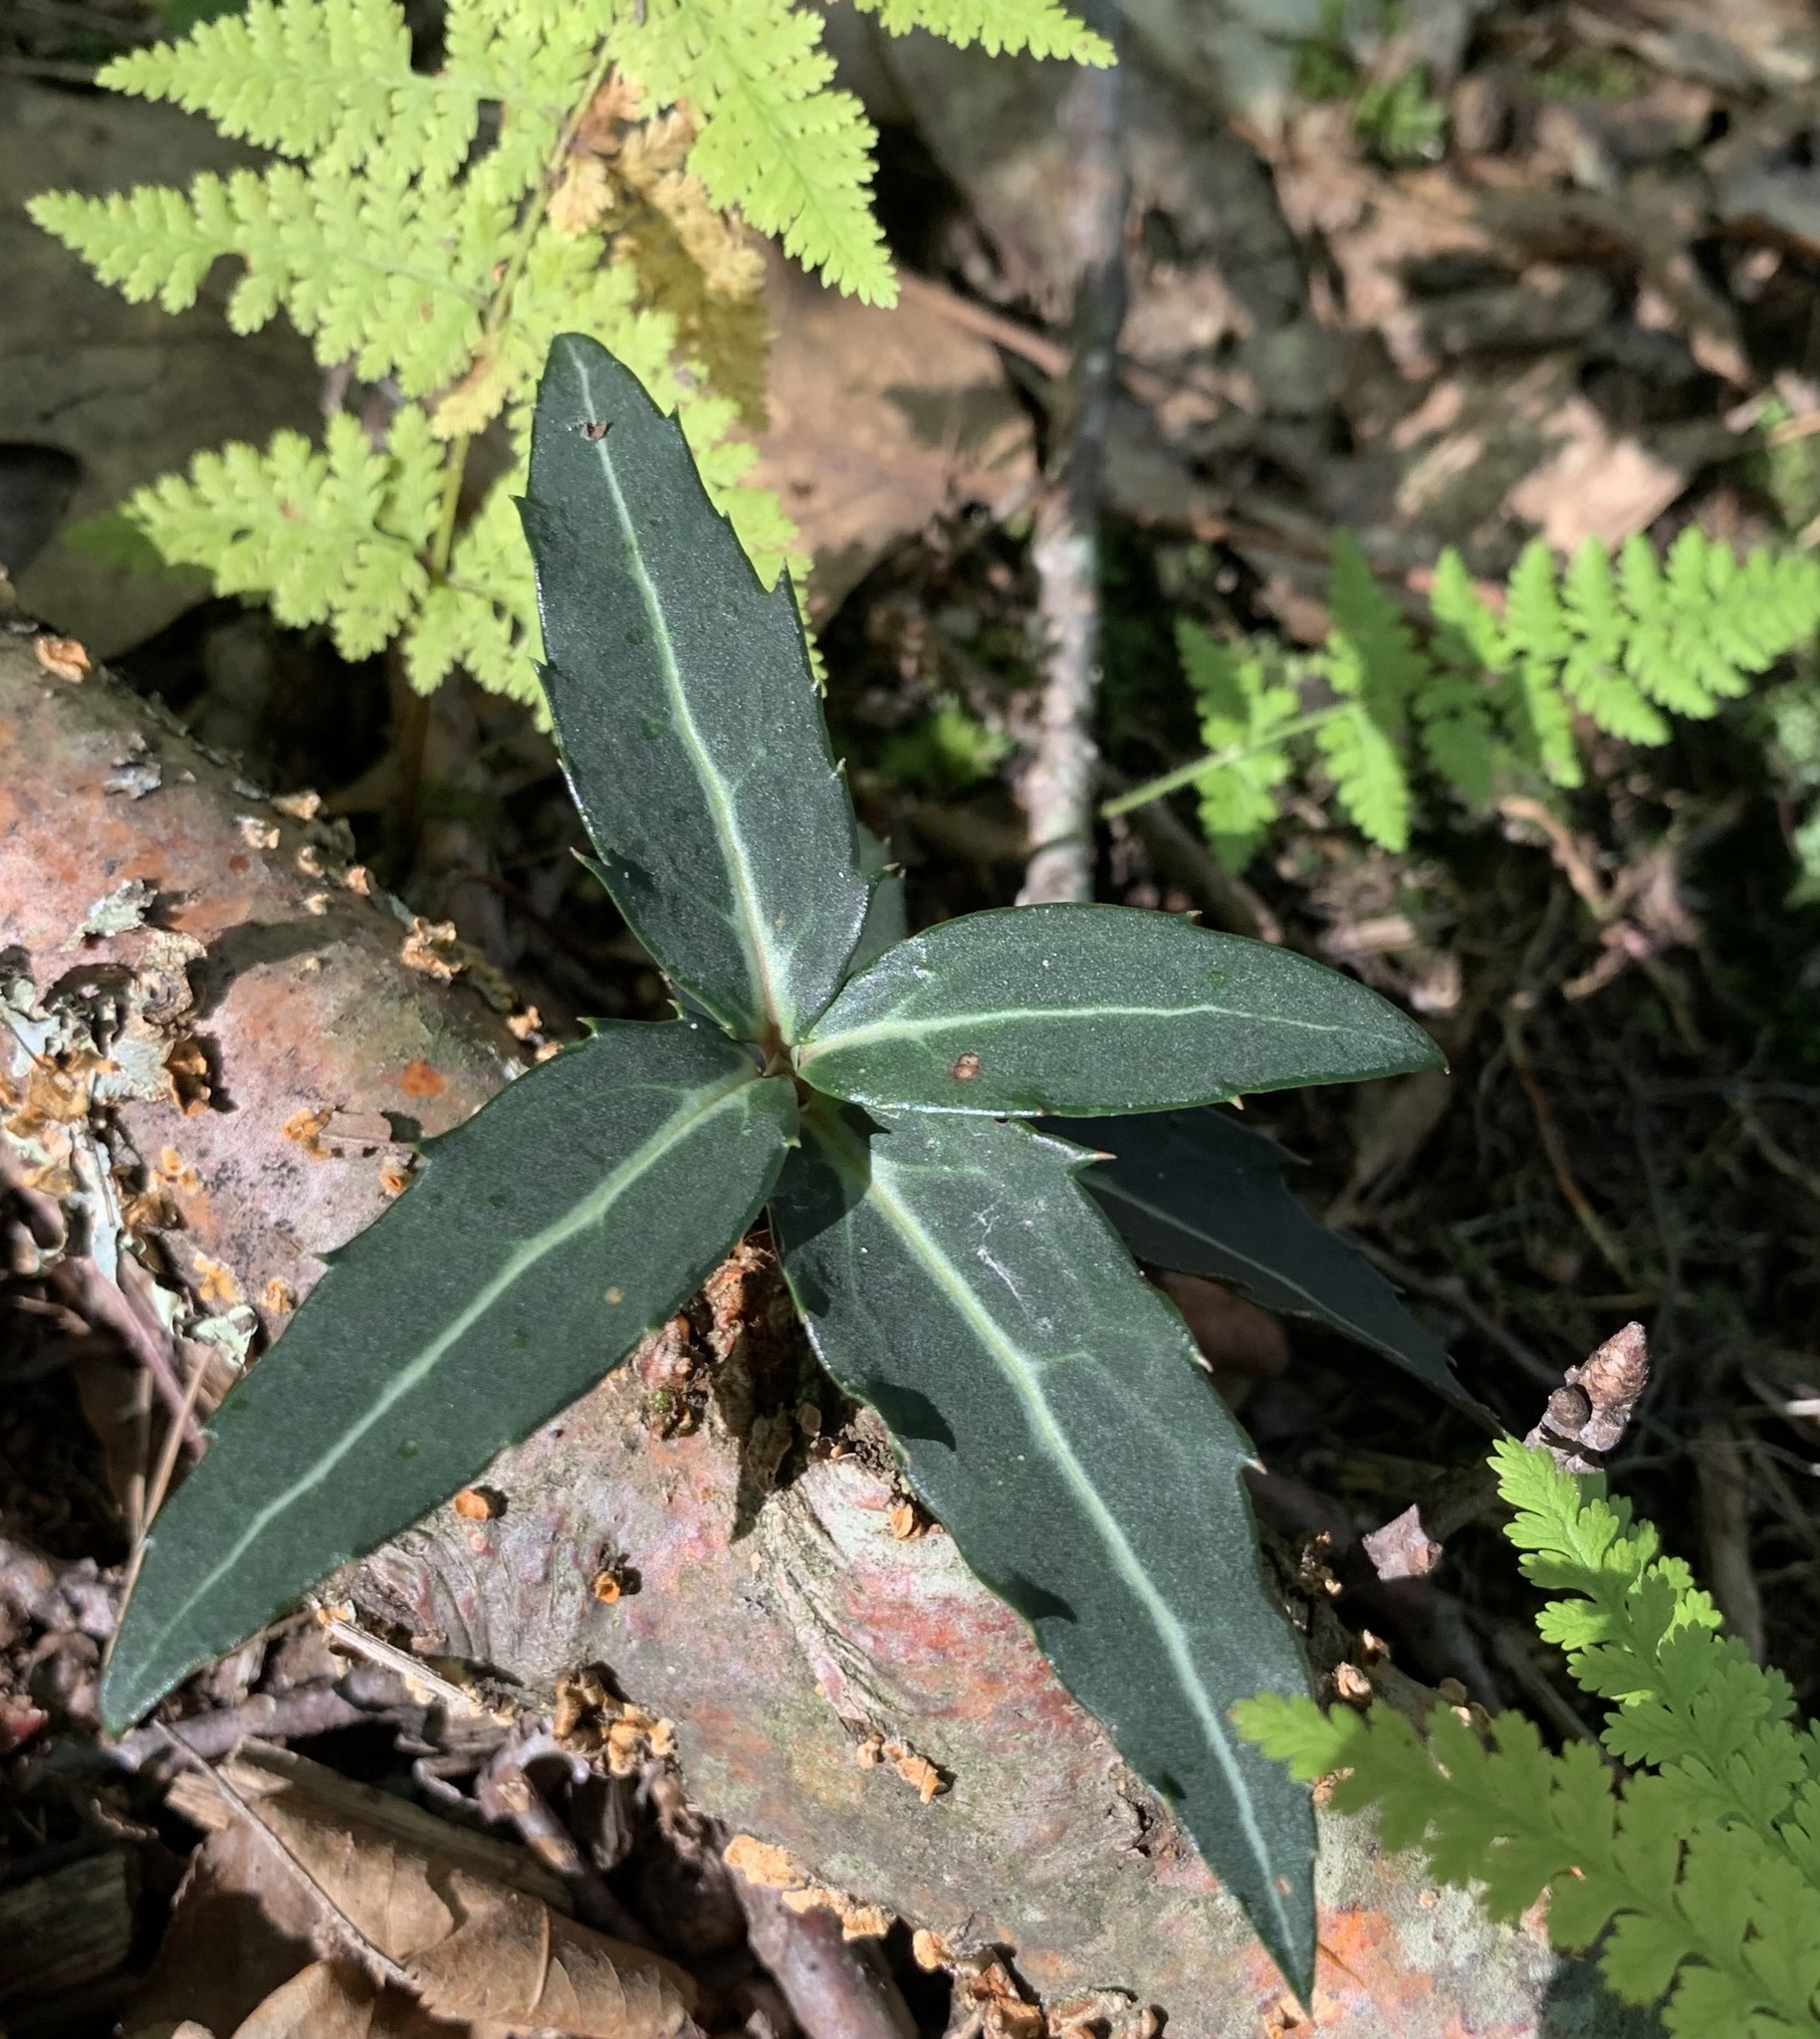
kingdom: Plantae
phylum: Tracheophyta
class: Magnoliopsida
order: Ericales
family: Ericaceae
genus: Chimaphila
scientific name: Chimaphila maculata
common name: Spotted pipsissewa
